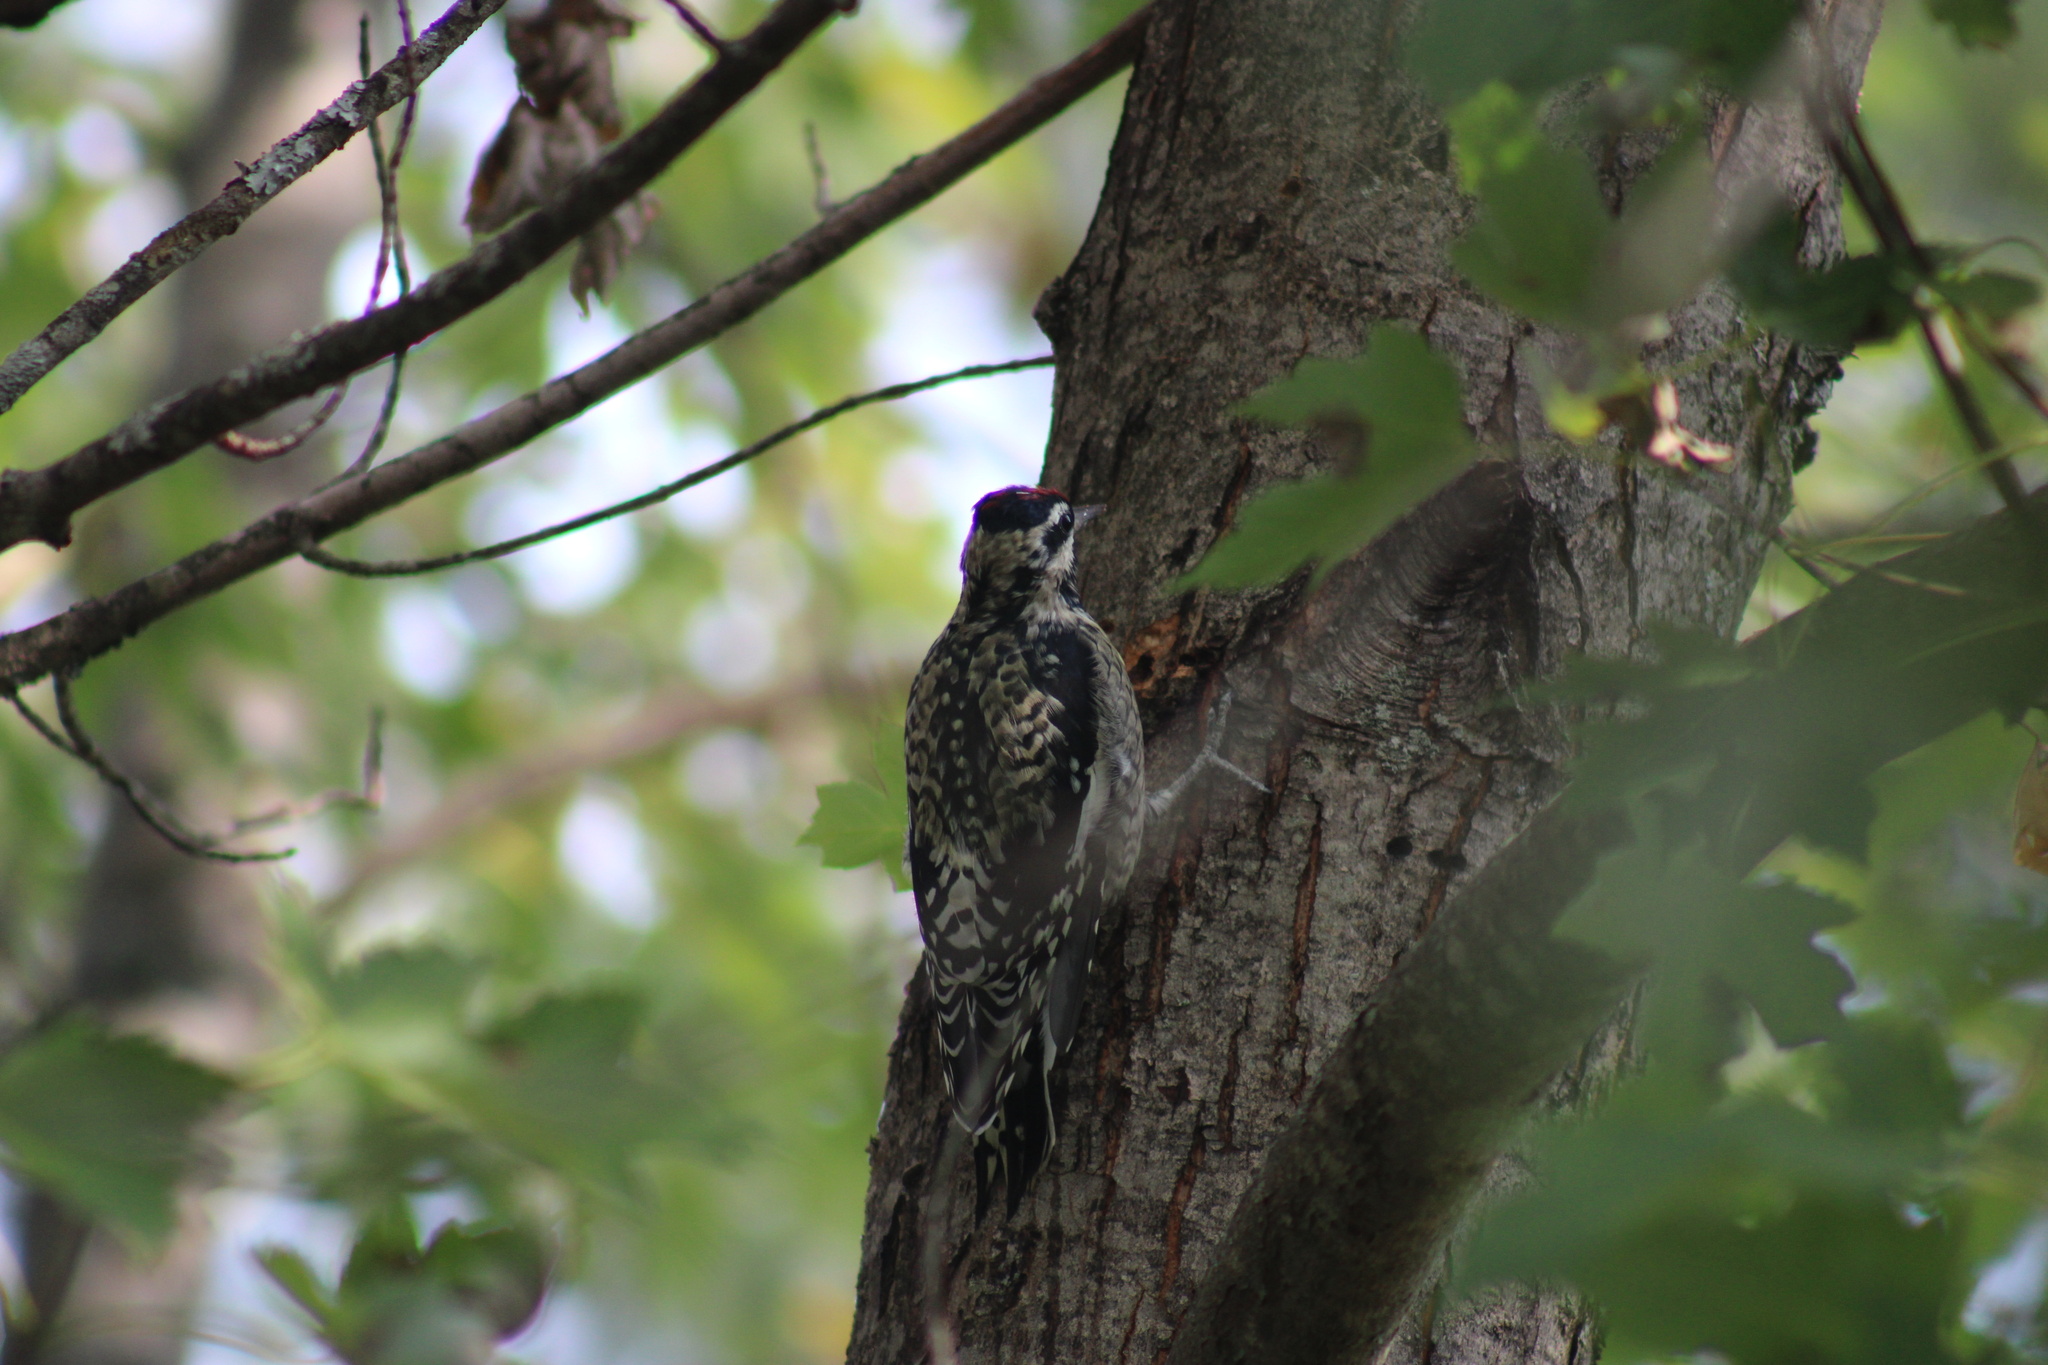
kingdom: Animalia
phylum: Chordata
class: Aves
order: Piciformes
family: Picidae
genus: Sphyrapicus
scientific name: Sphyrapicus varius
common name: Yellow-bellied sapsucker
